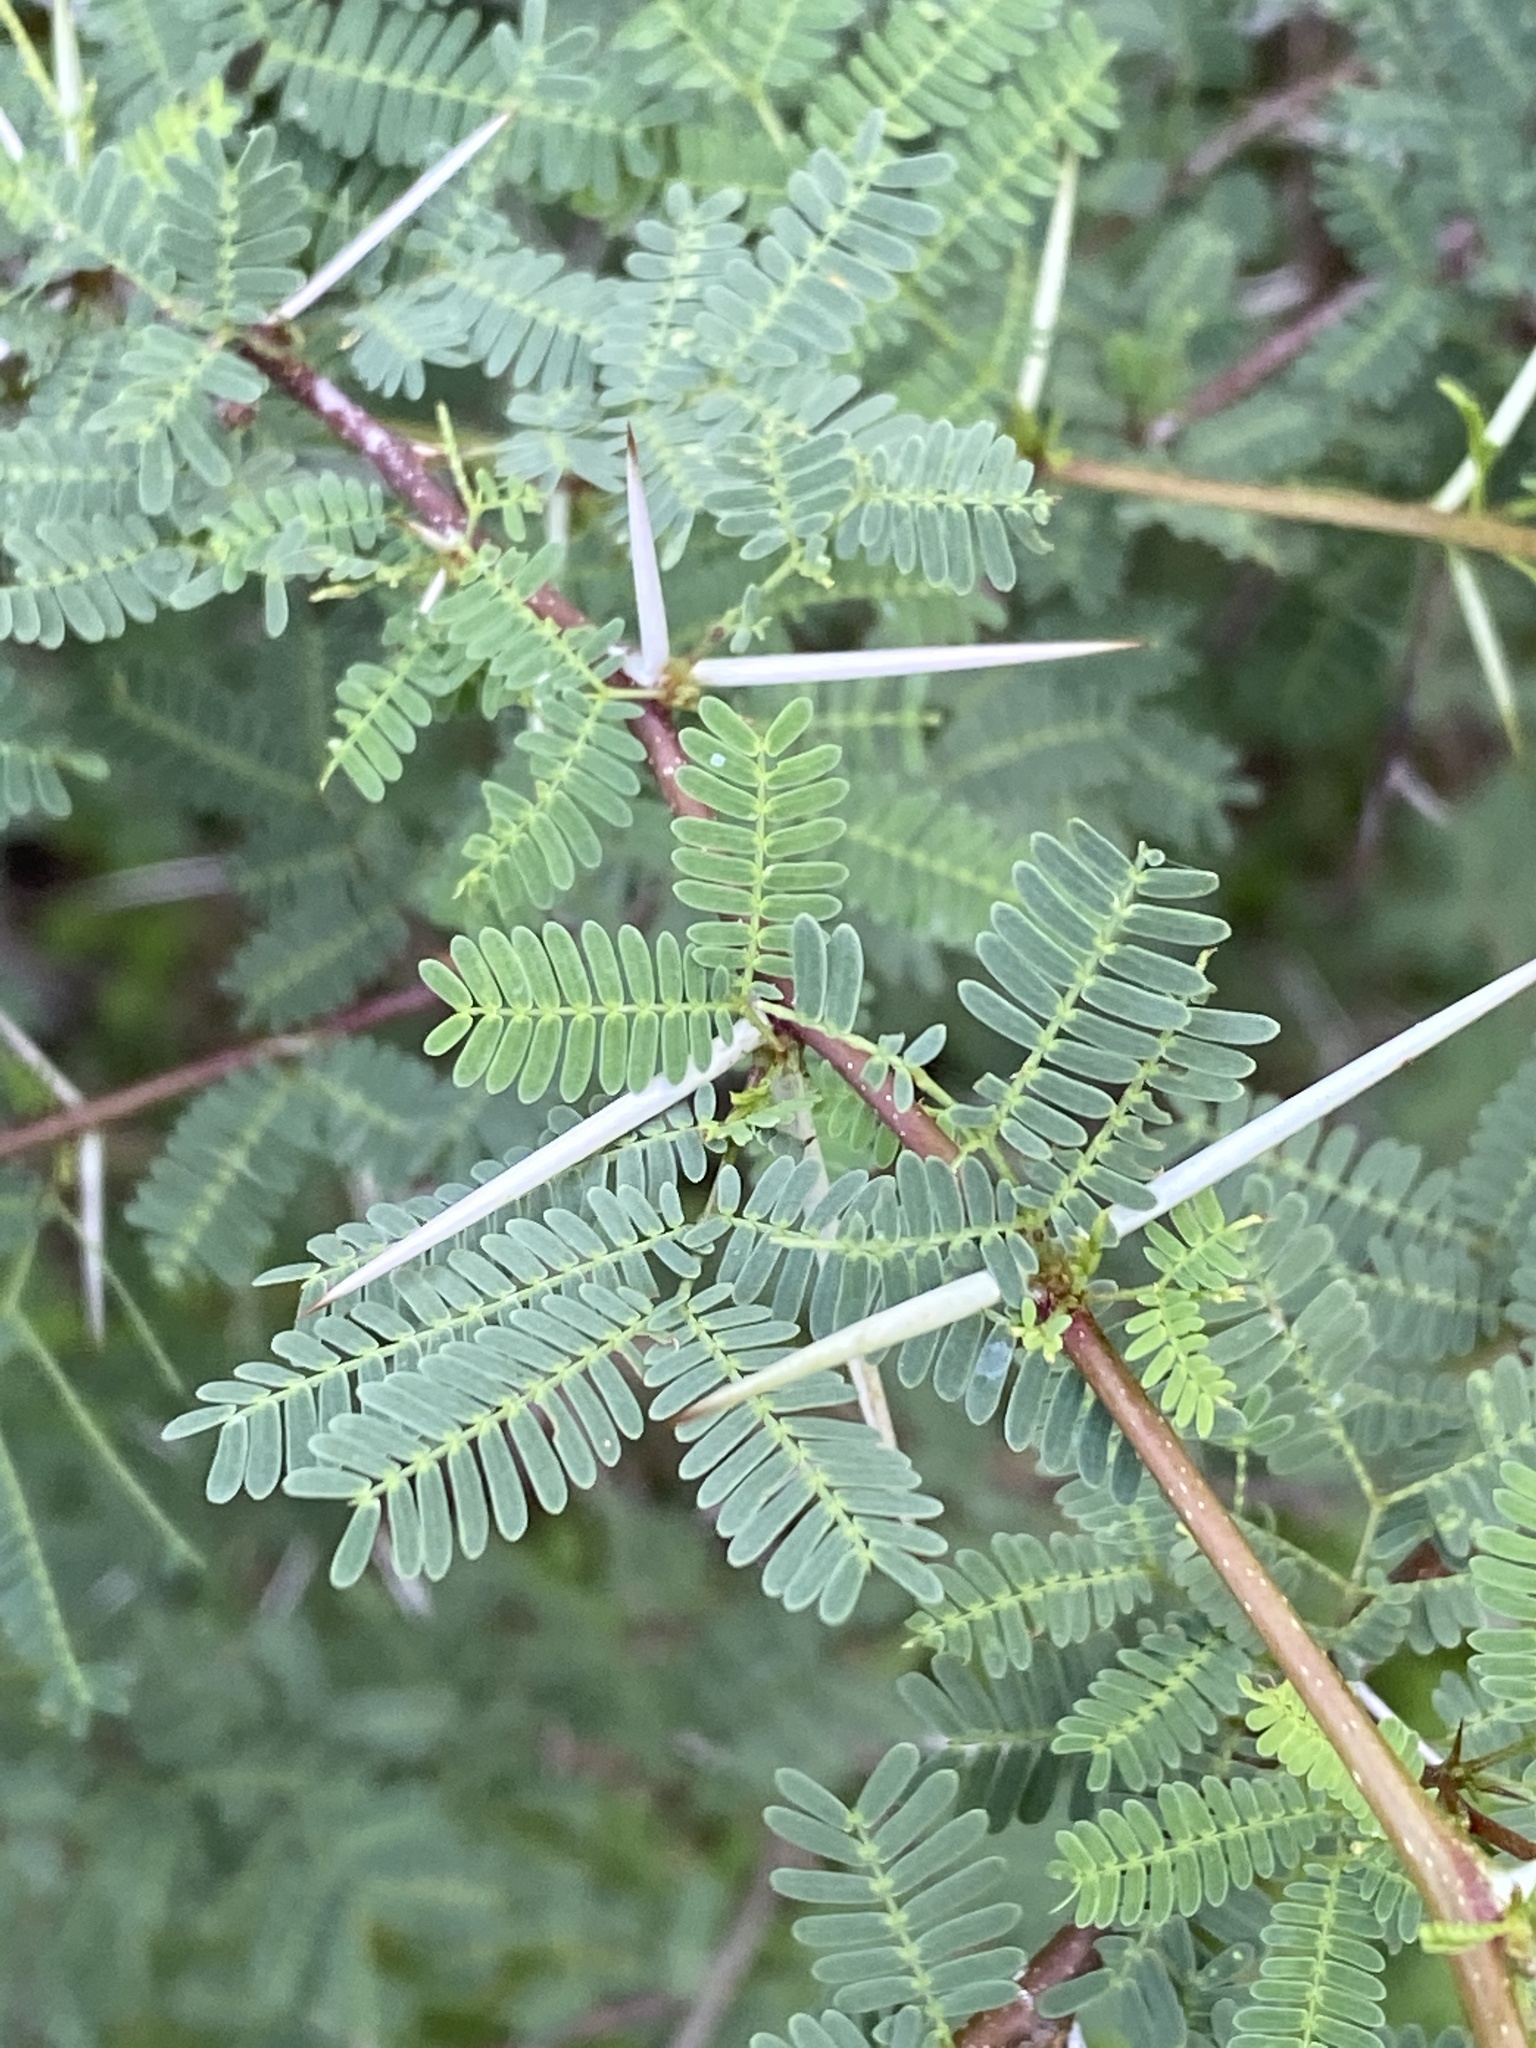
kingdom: Plantae
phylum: Tracheophyta
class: Magnoliopsida
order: Fabales
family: Fabaceae
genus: Vachellia
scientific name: Vachellia farnesiana
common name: Sweet acacia
